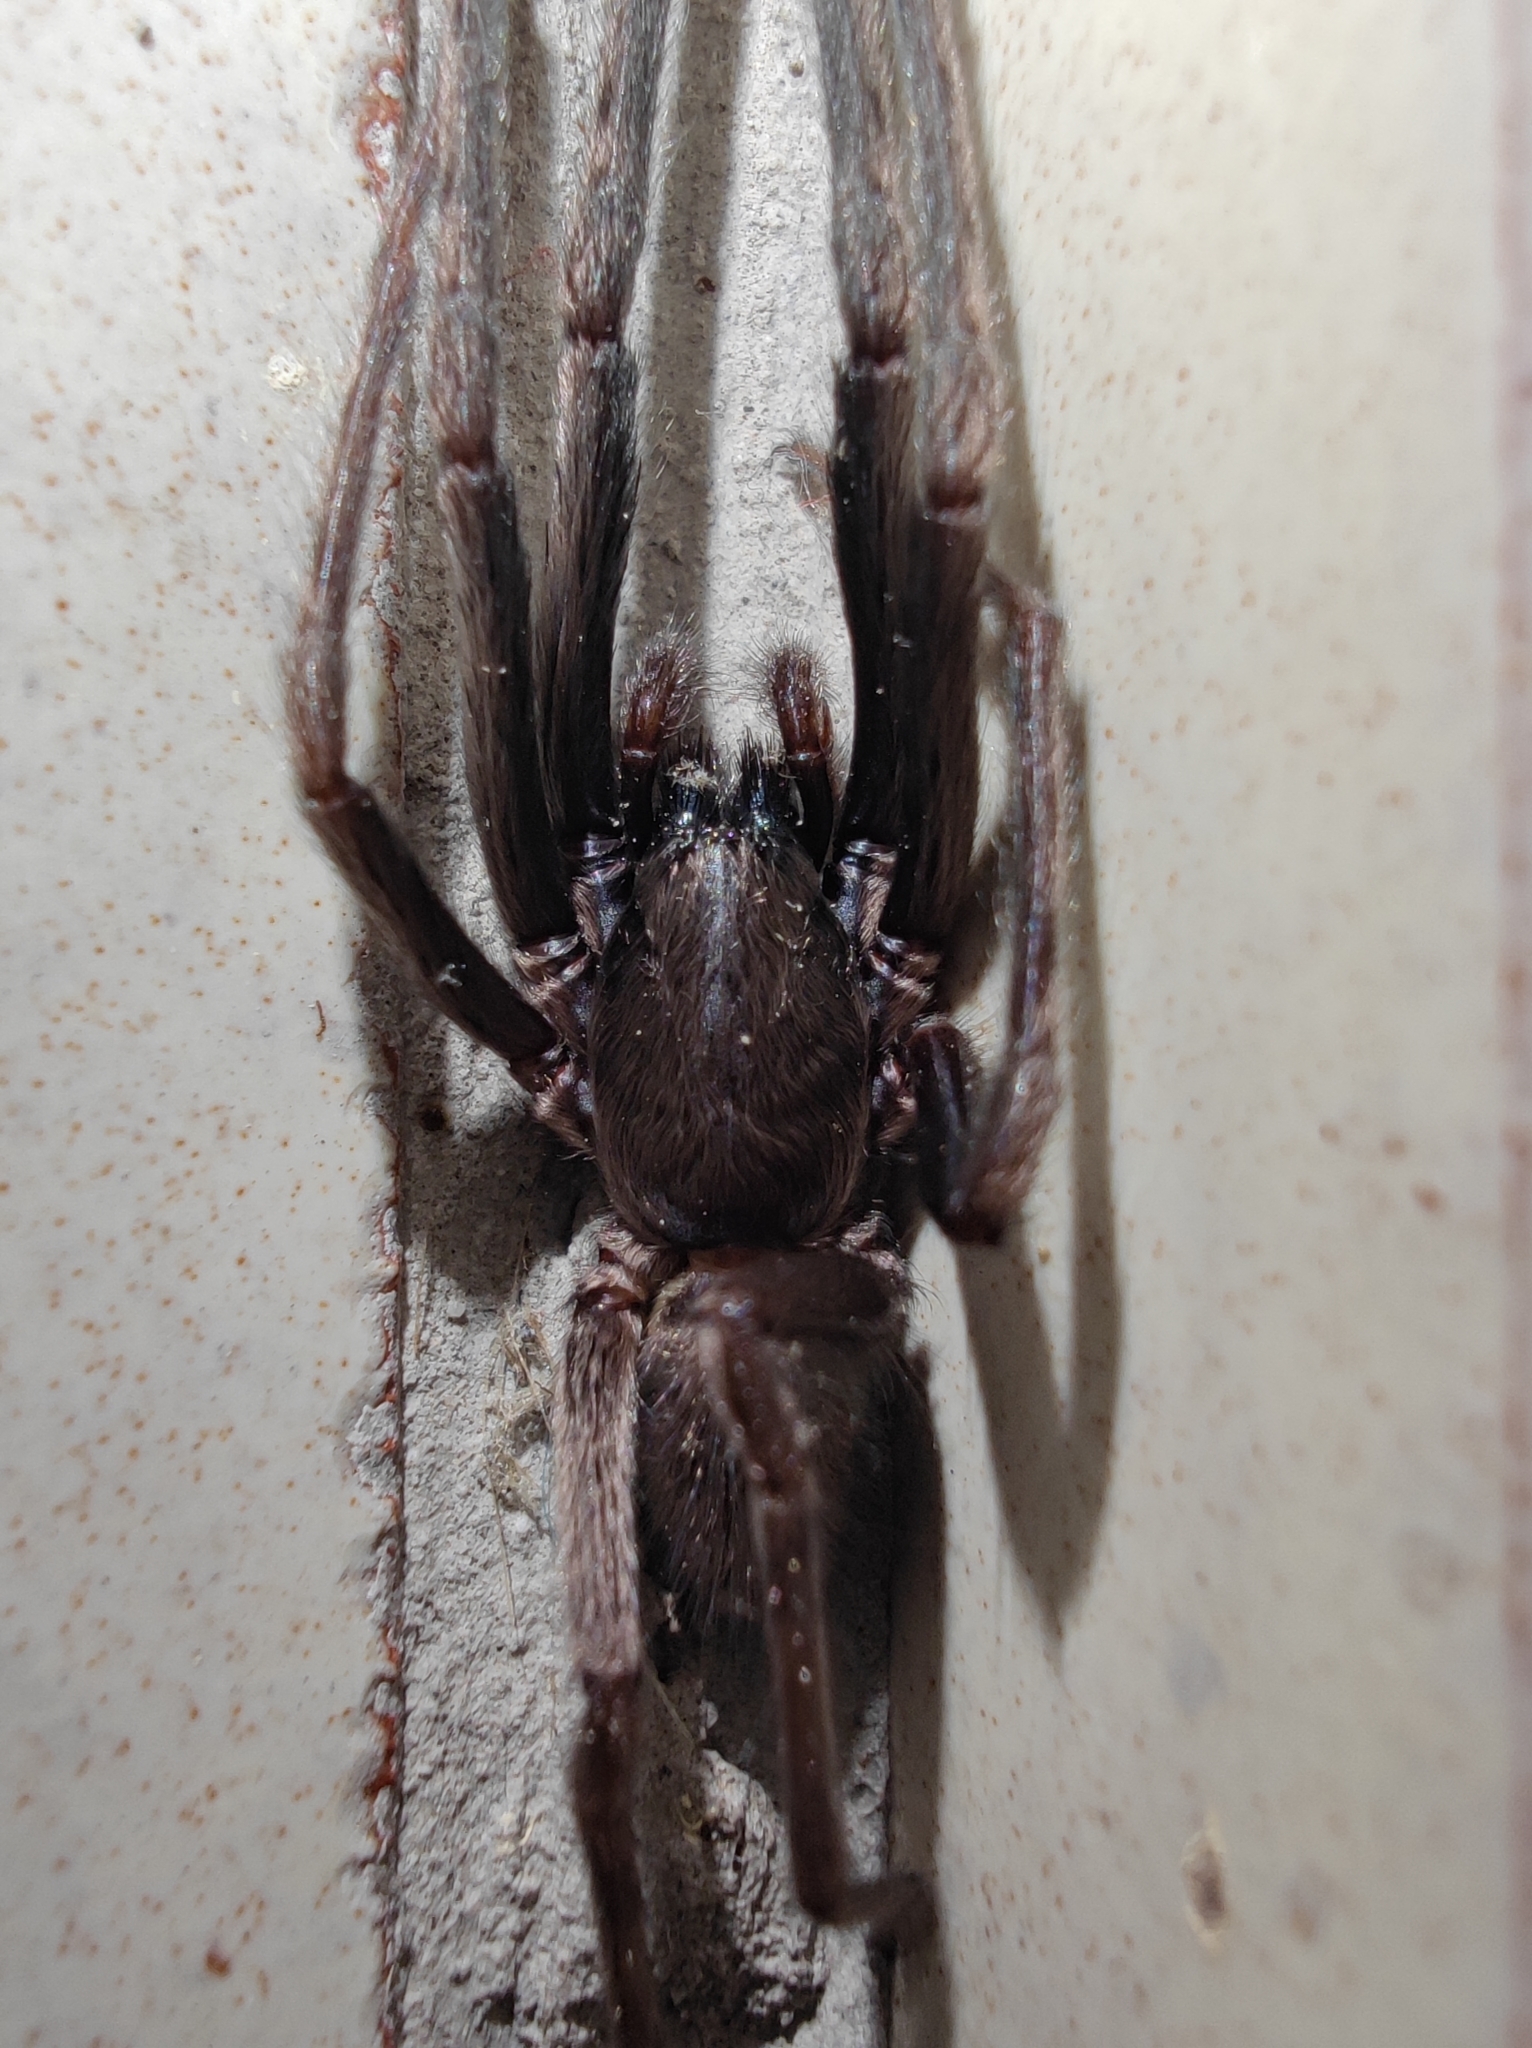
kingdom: Animalia
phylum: Arthropoda
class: Arachnida
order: Araneae
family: Segestriidae
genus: Segestria
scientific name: Segestria florentina
